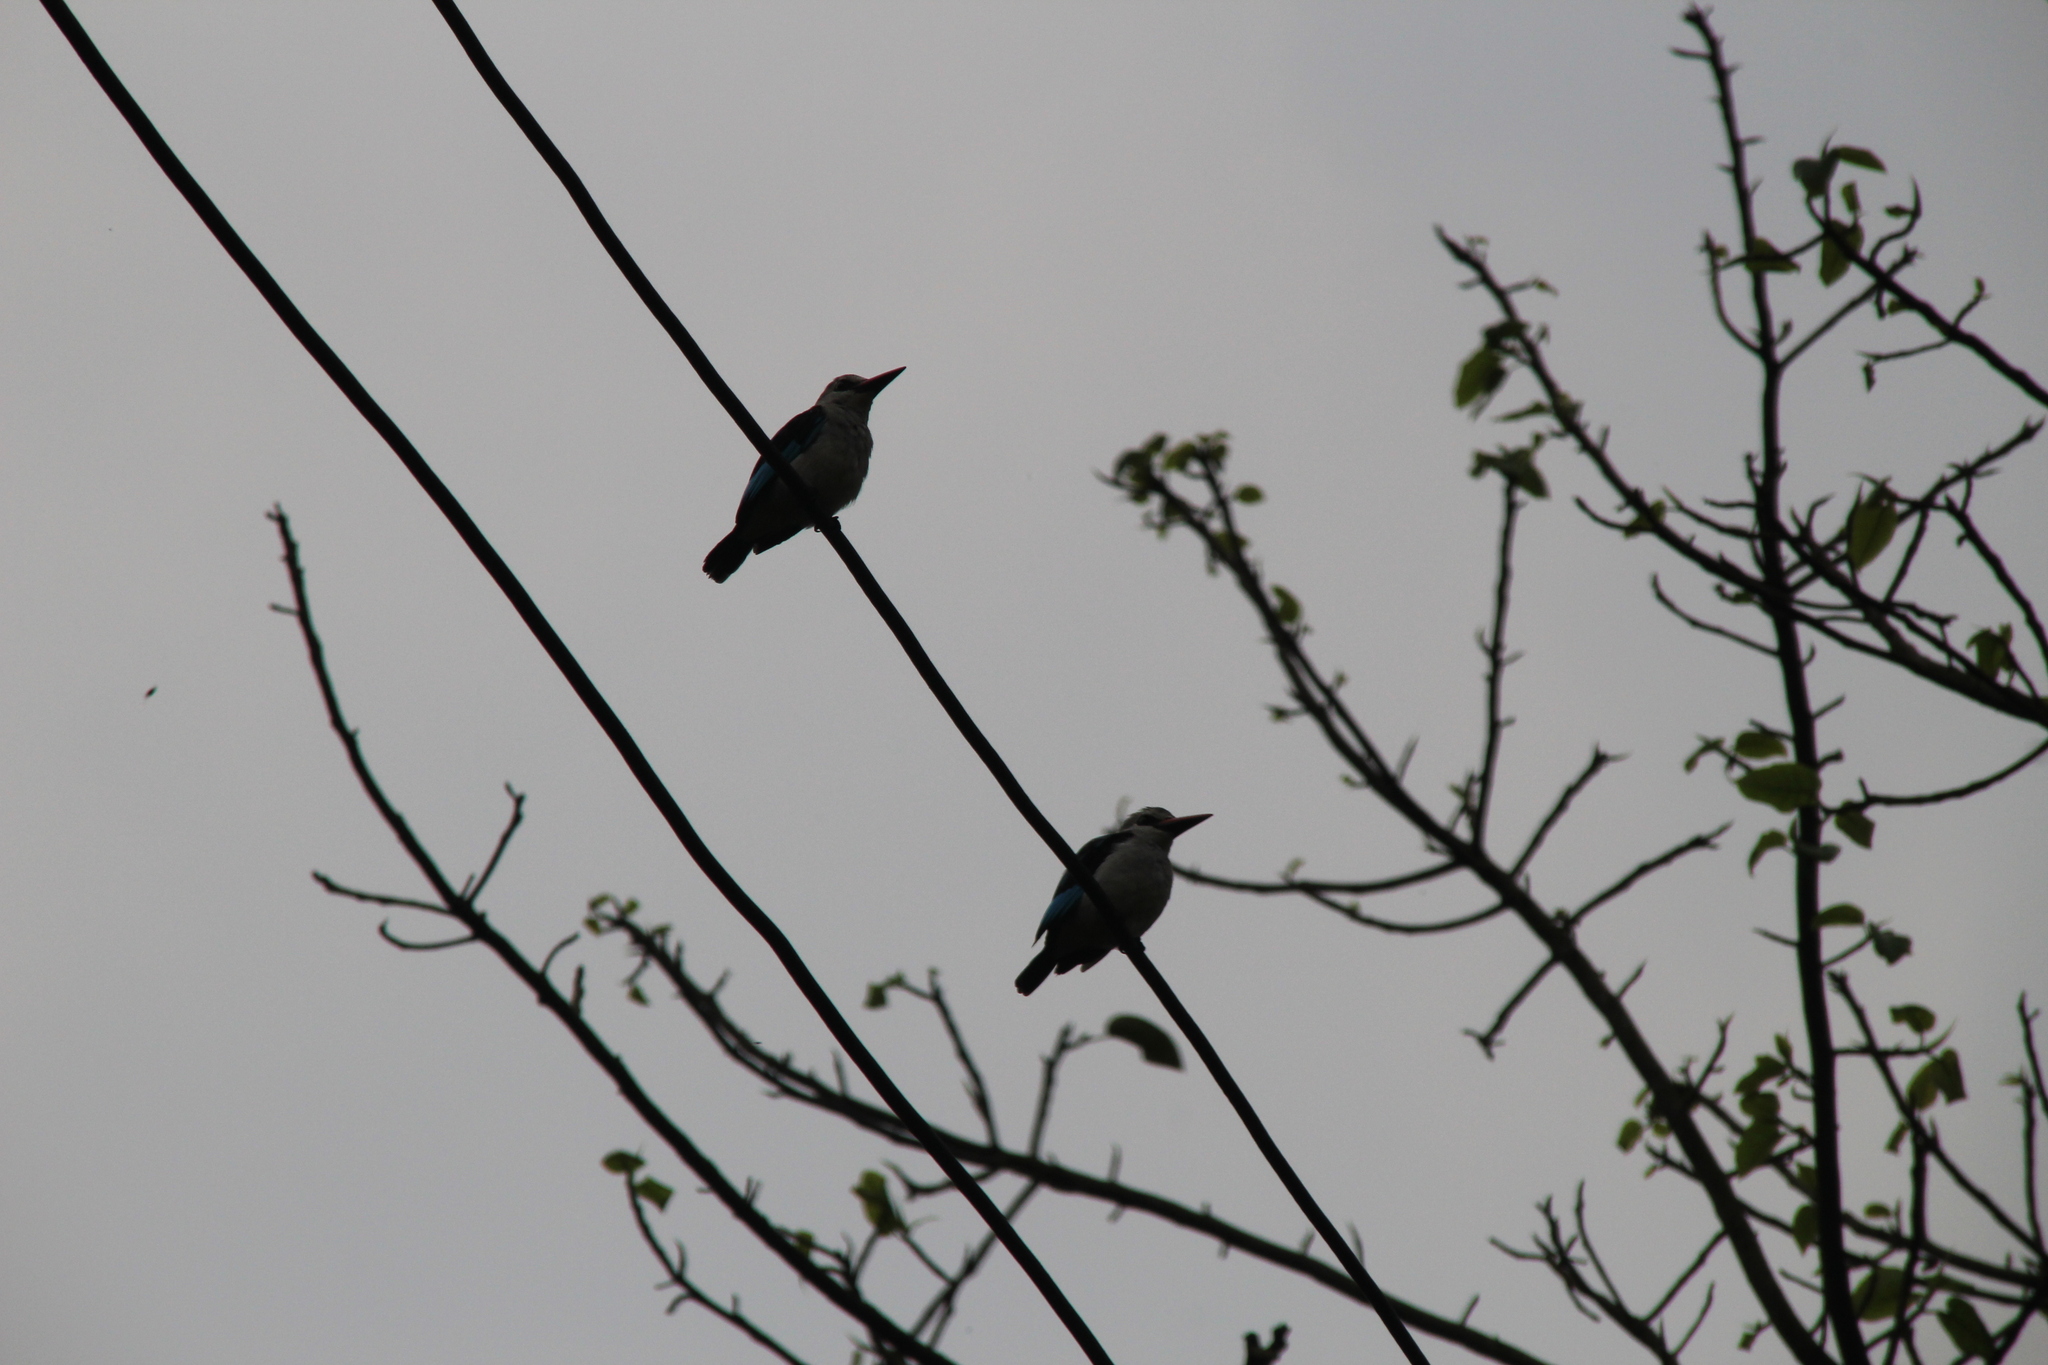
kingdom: Animalia
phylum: Chordata
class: Aves
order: Coraciiformes
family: Alcedinidae
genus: Halcyon
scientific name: Halcyon senegalensis
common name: Woodland kingfisher
